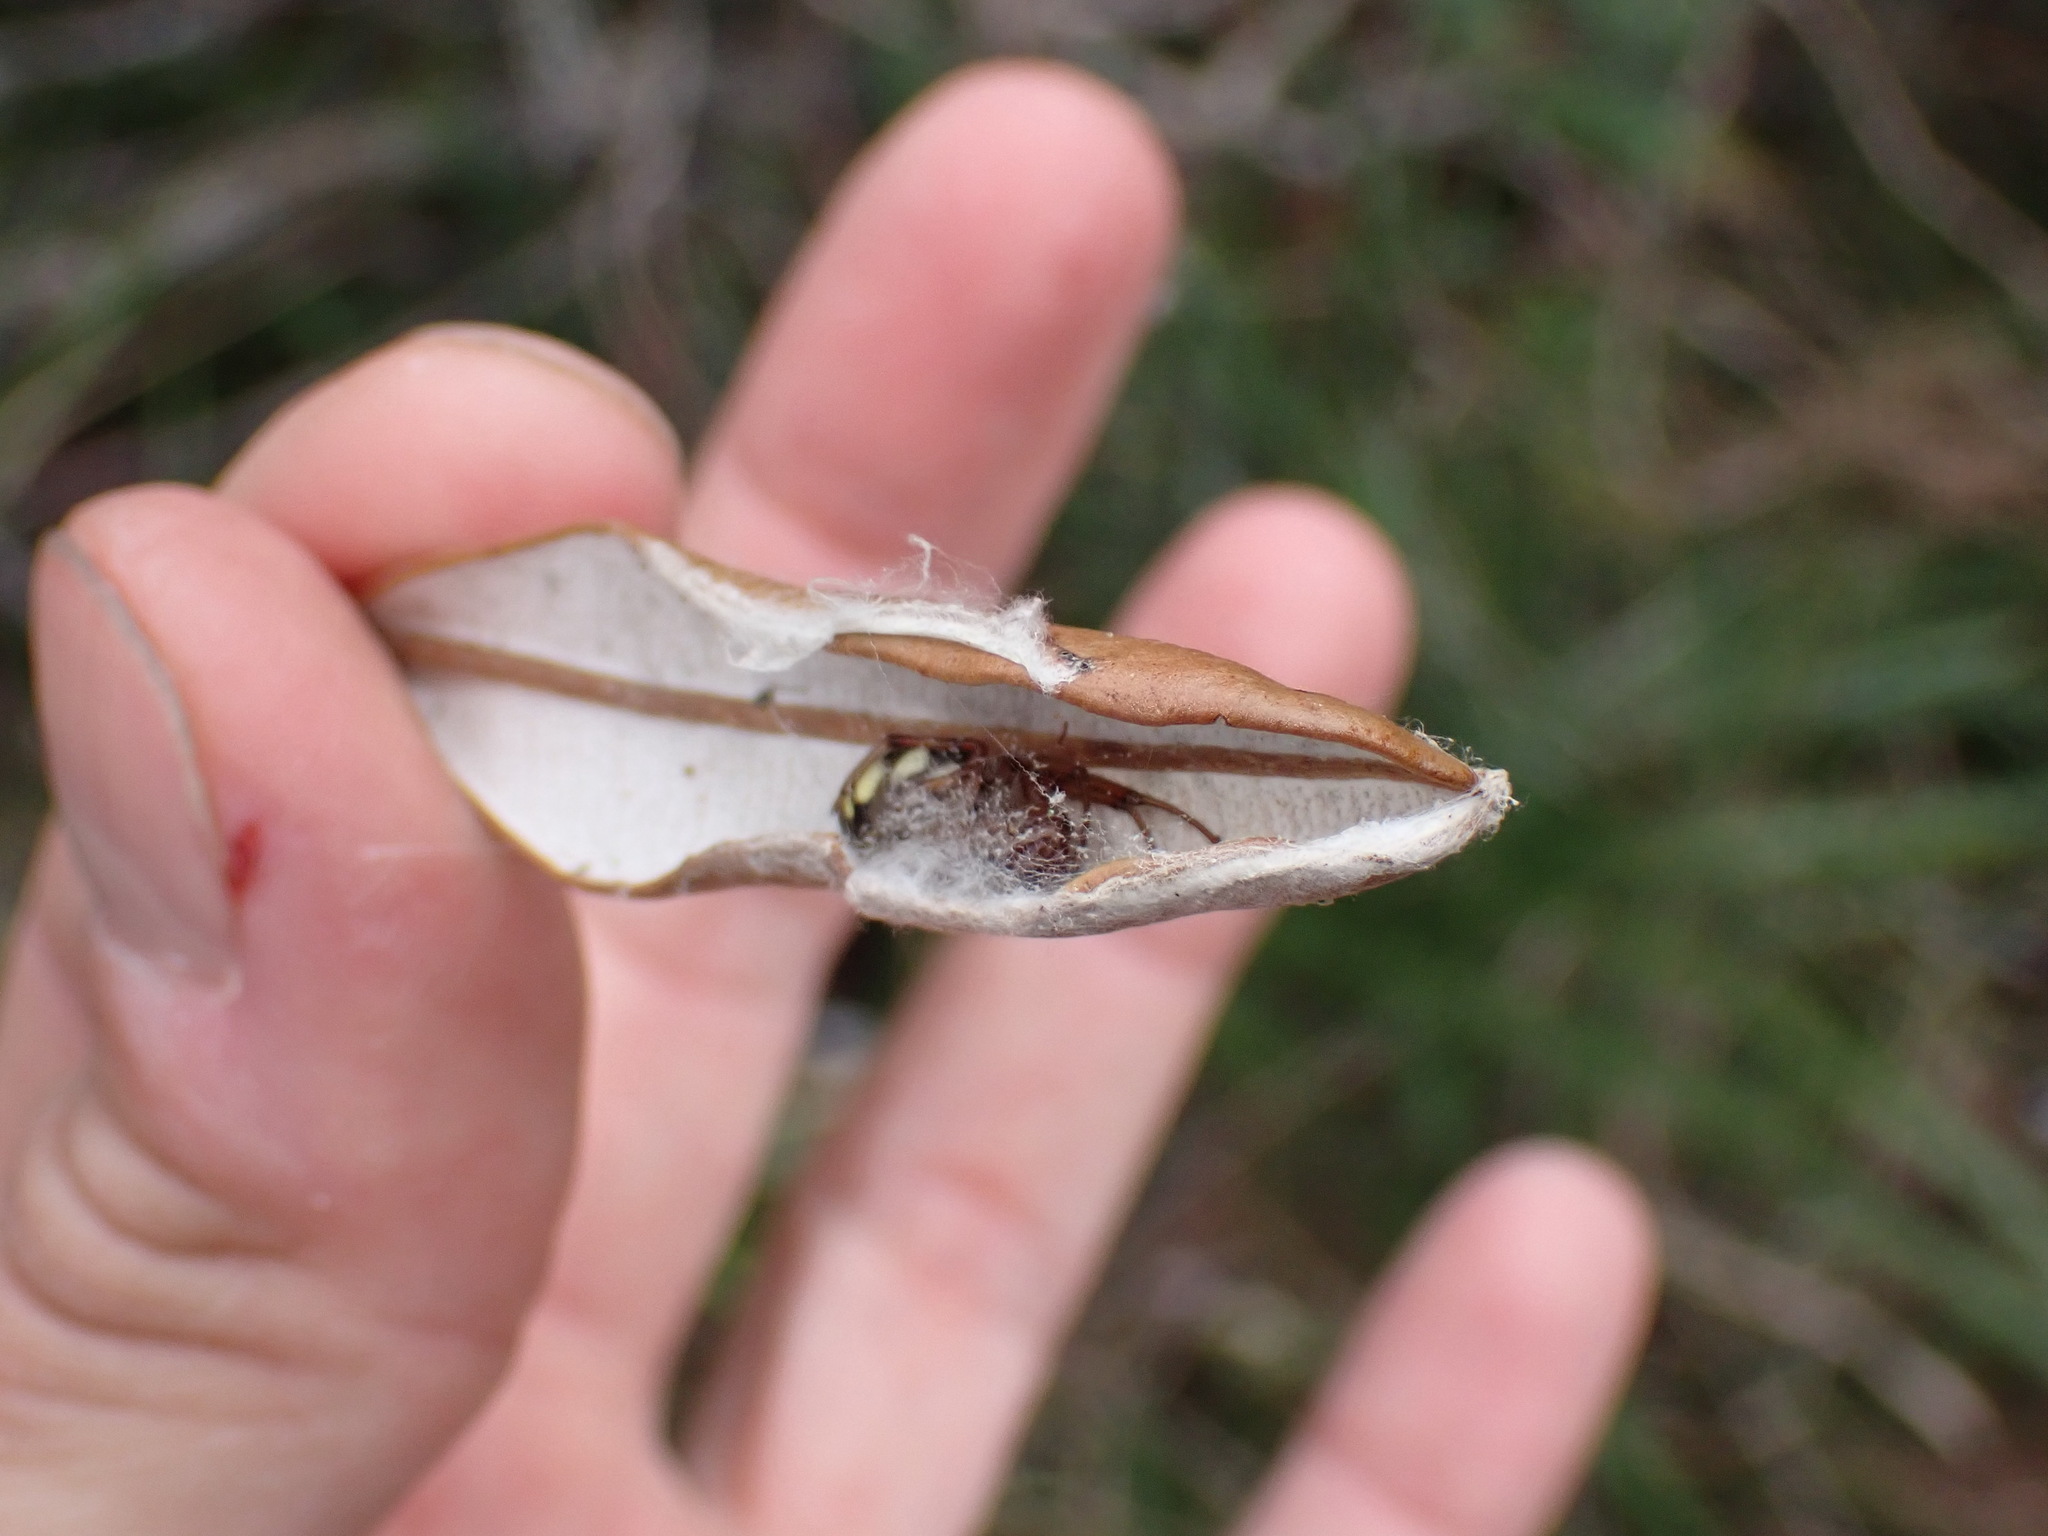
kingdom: Animalia
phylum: Arthropoda
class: Arachnida
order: Araneae
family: Araneidae
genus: Phonognatha
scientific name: Phonognatha graeffei
